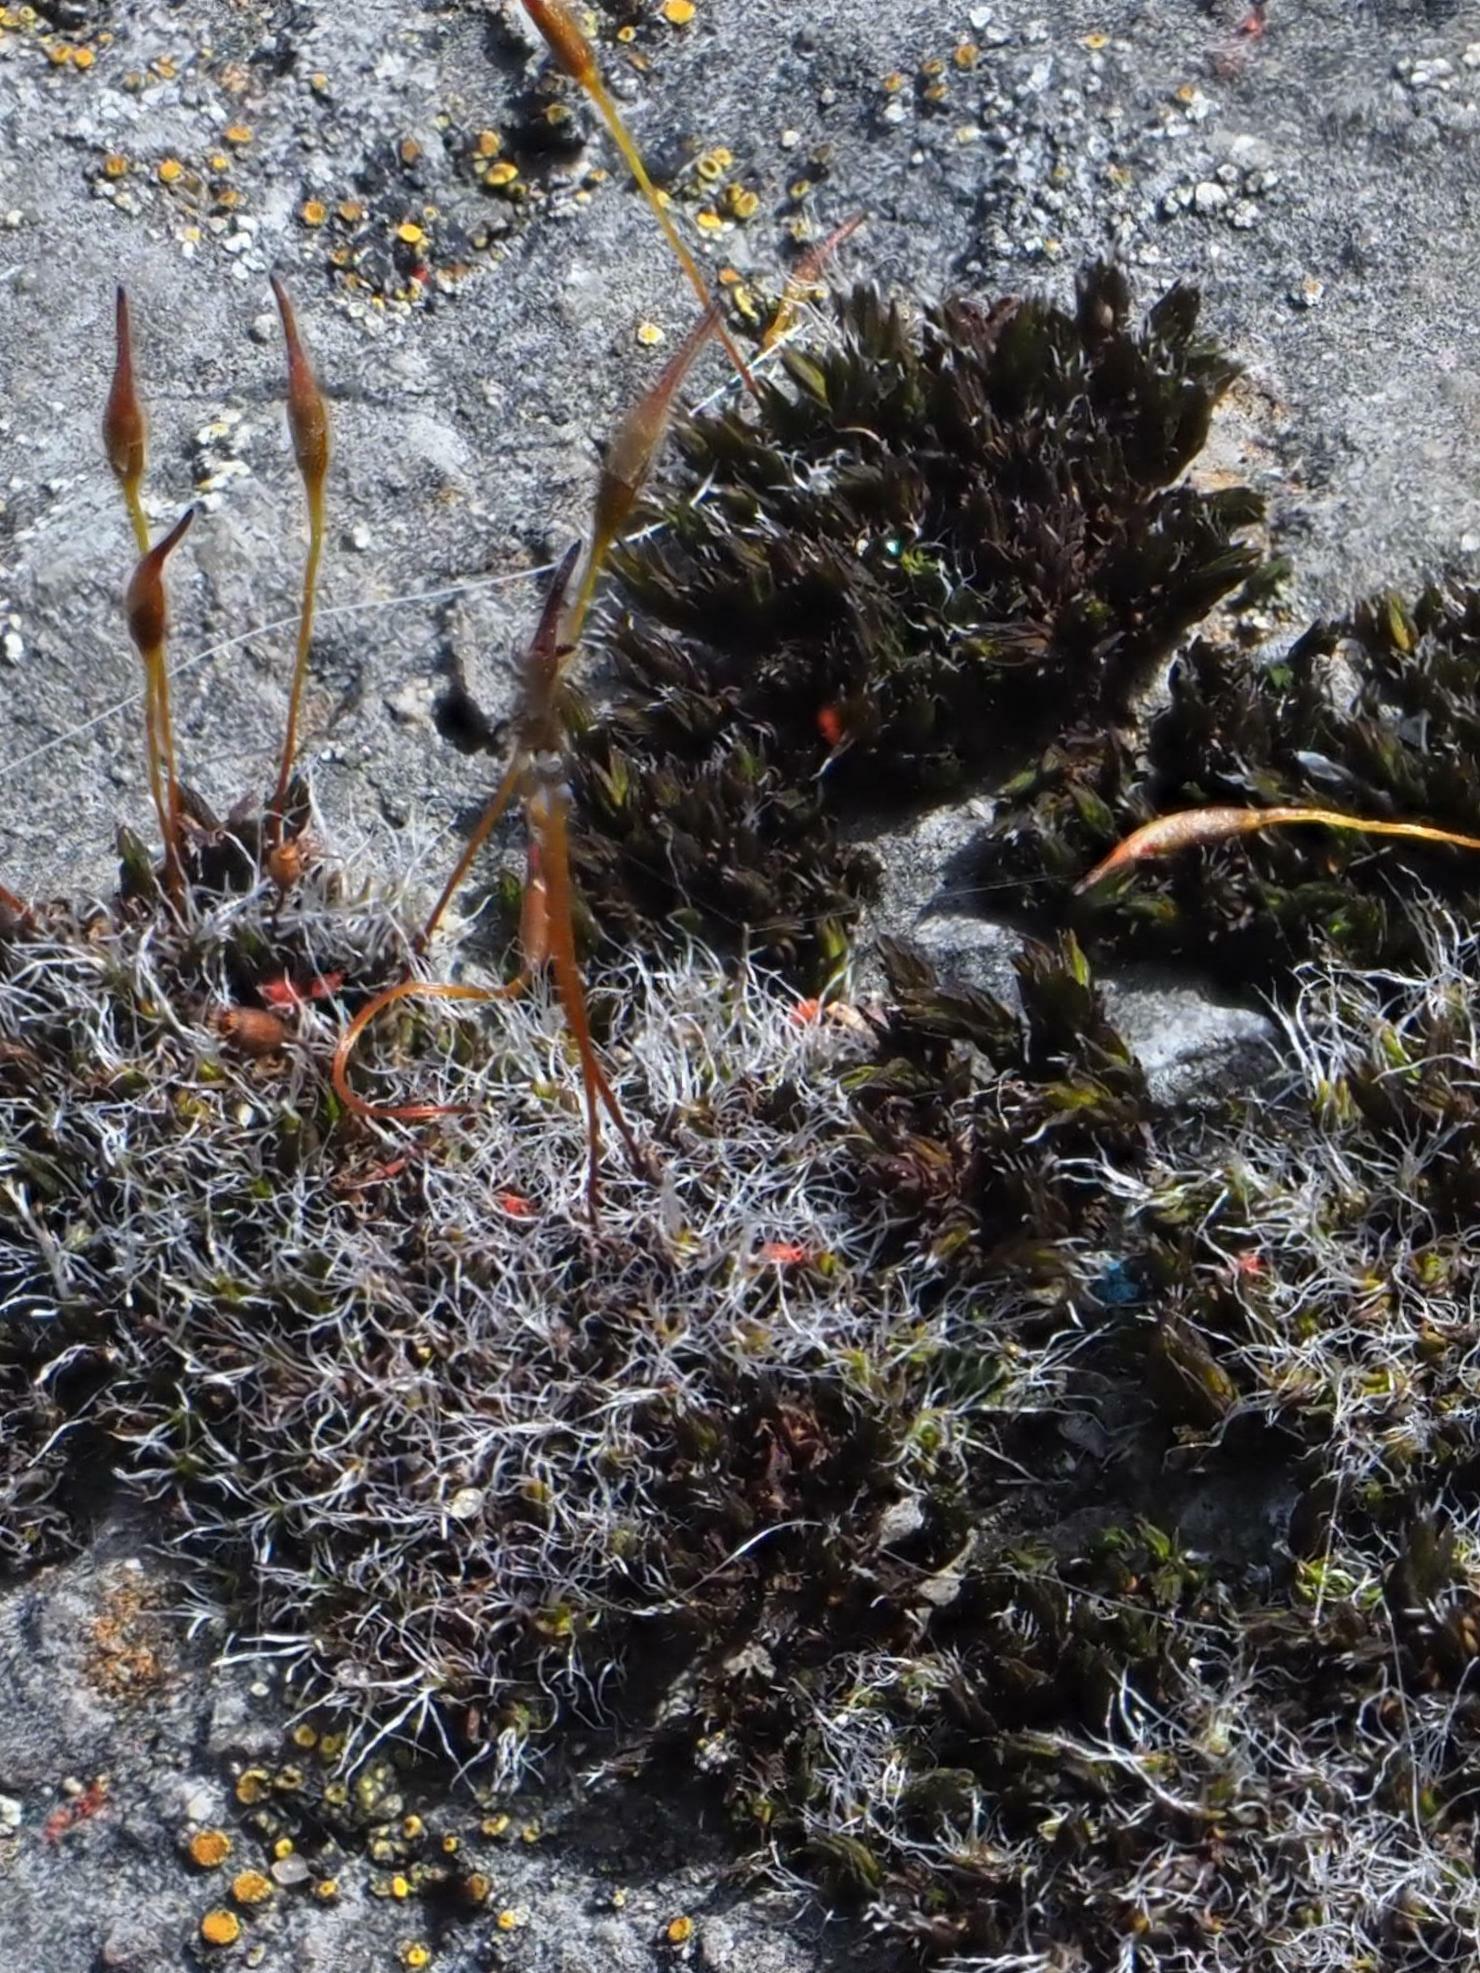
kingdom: Plantae
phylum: Bryophyta
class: Bryopsida
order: Pottiales
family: Pottiaceae
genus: Tortula
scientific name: Tortula muralis
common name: Wall screw-moss
